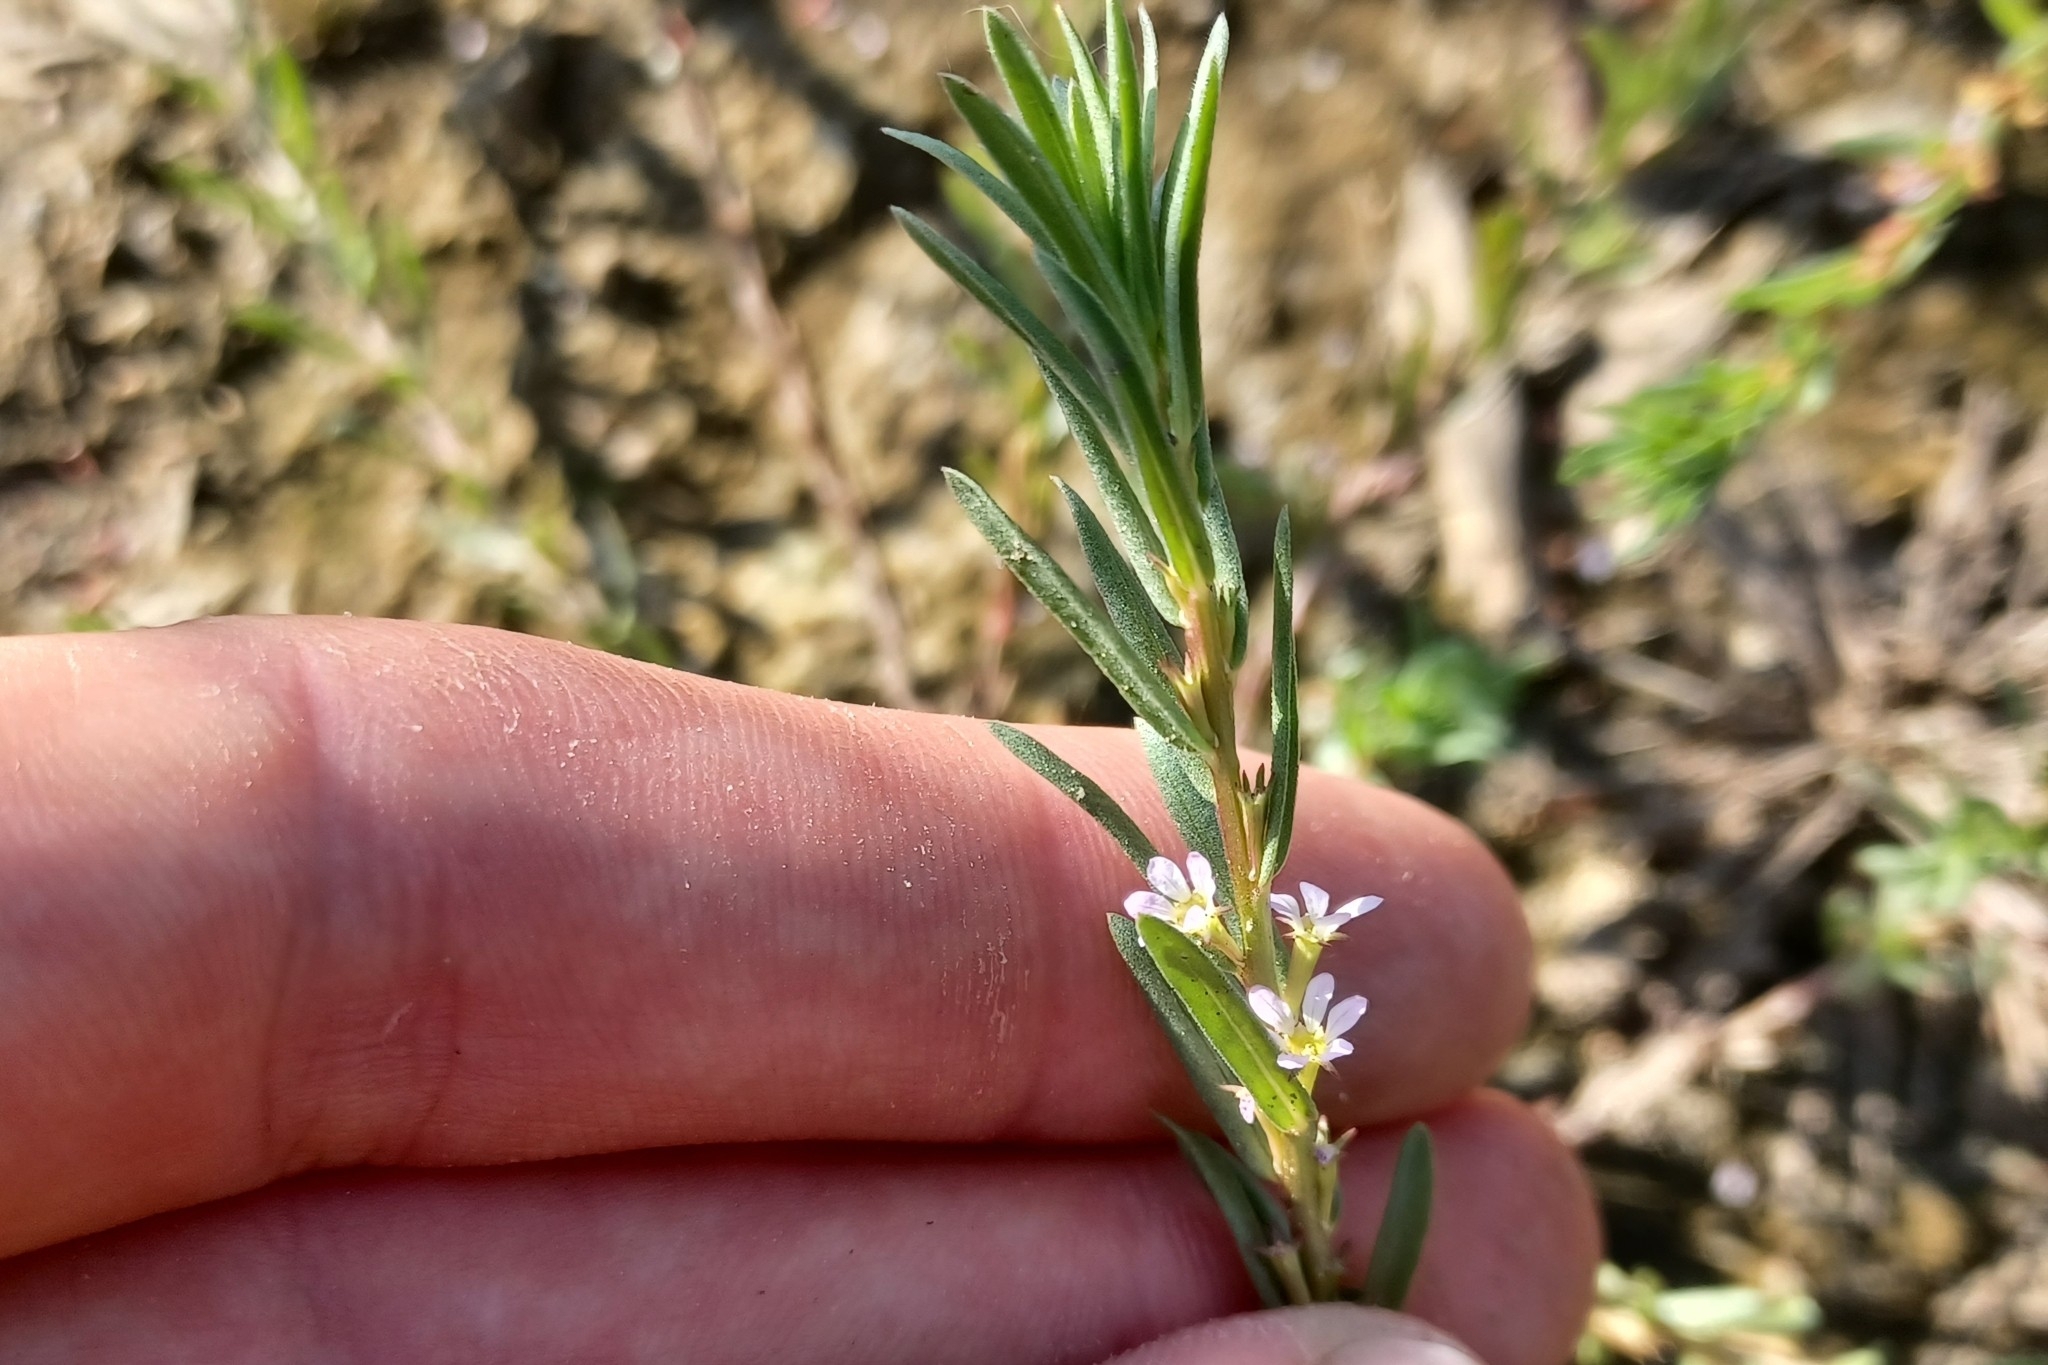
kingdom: Plantae
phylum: Tracheophyta
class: Magnoliopsida
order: Myrtales
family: Lythraceae
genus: Lythrum
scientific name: Lythrum hyssopifolia
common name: Grass-poly
